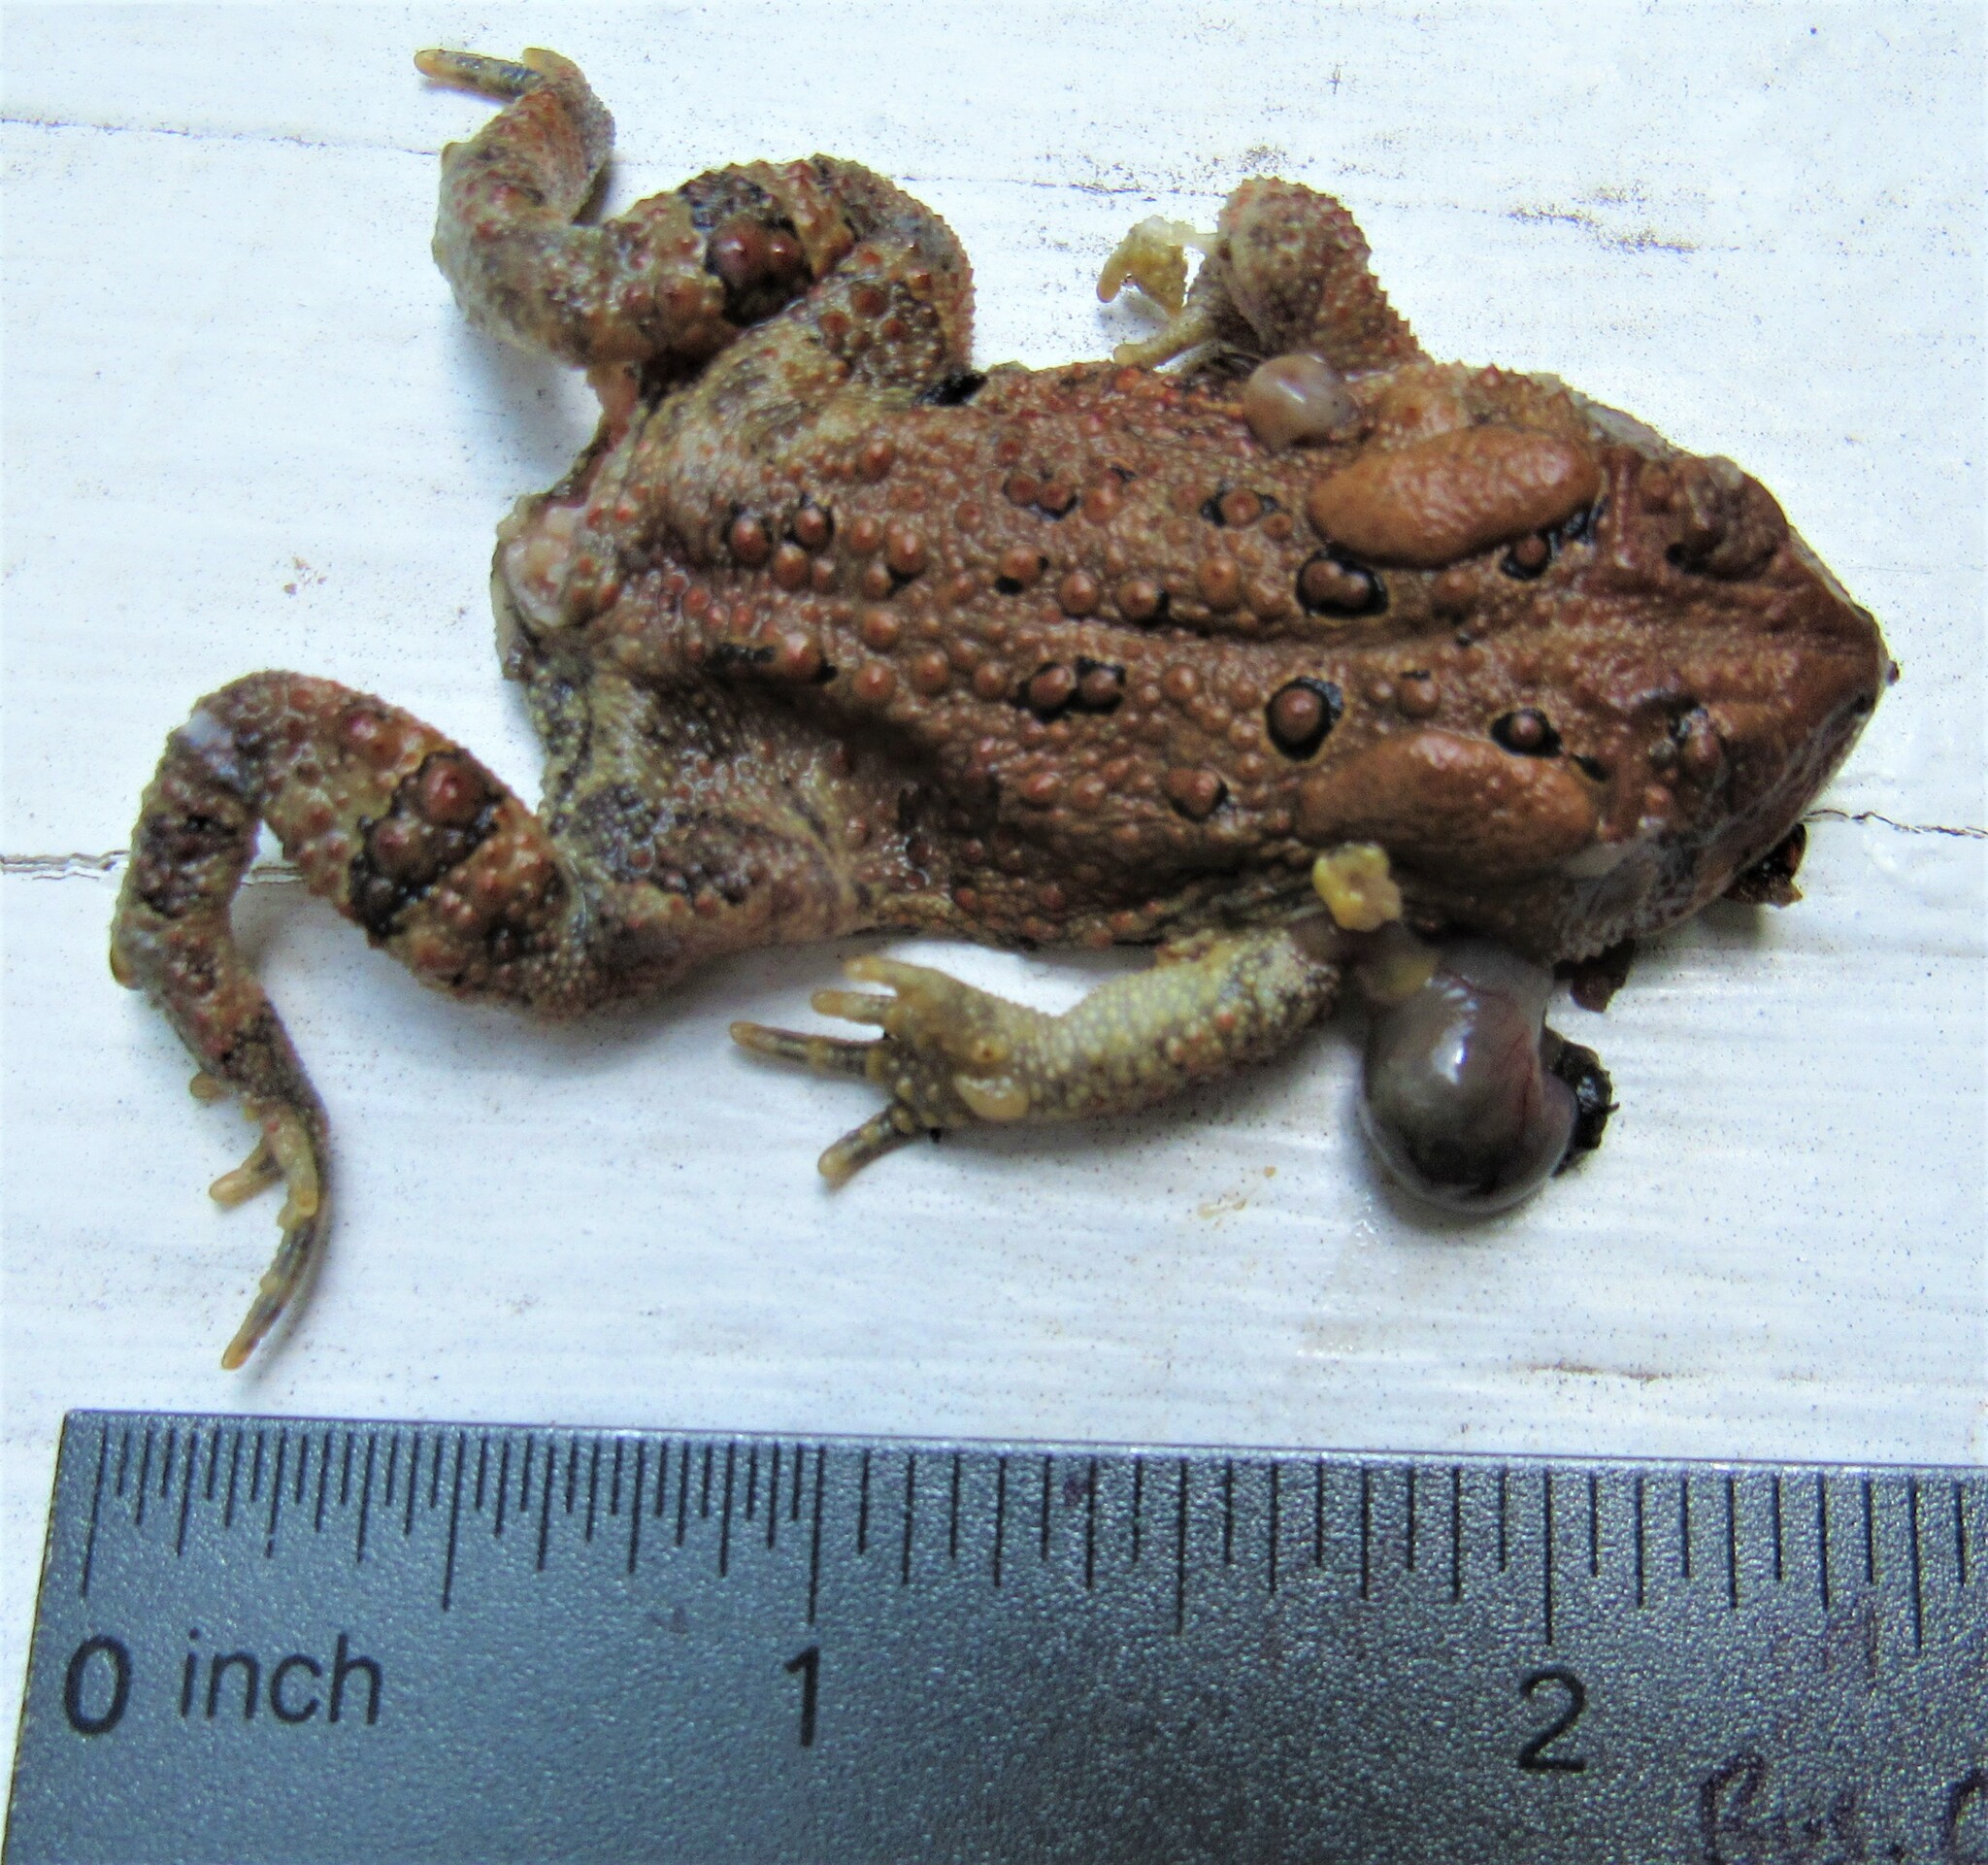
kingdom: Animalia
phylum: Chordata
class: Amphibia
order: Anura
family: Bufonidae
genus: Anaxyrus
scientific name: Anaxyrus americanus
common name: American toad
